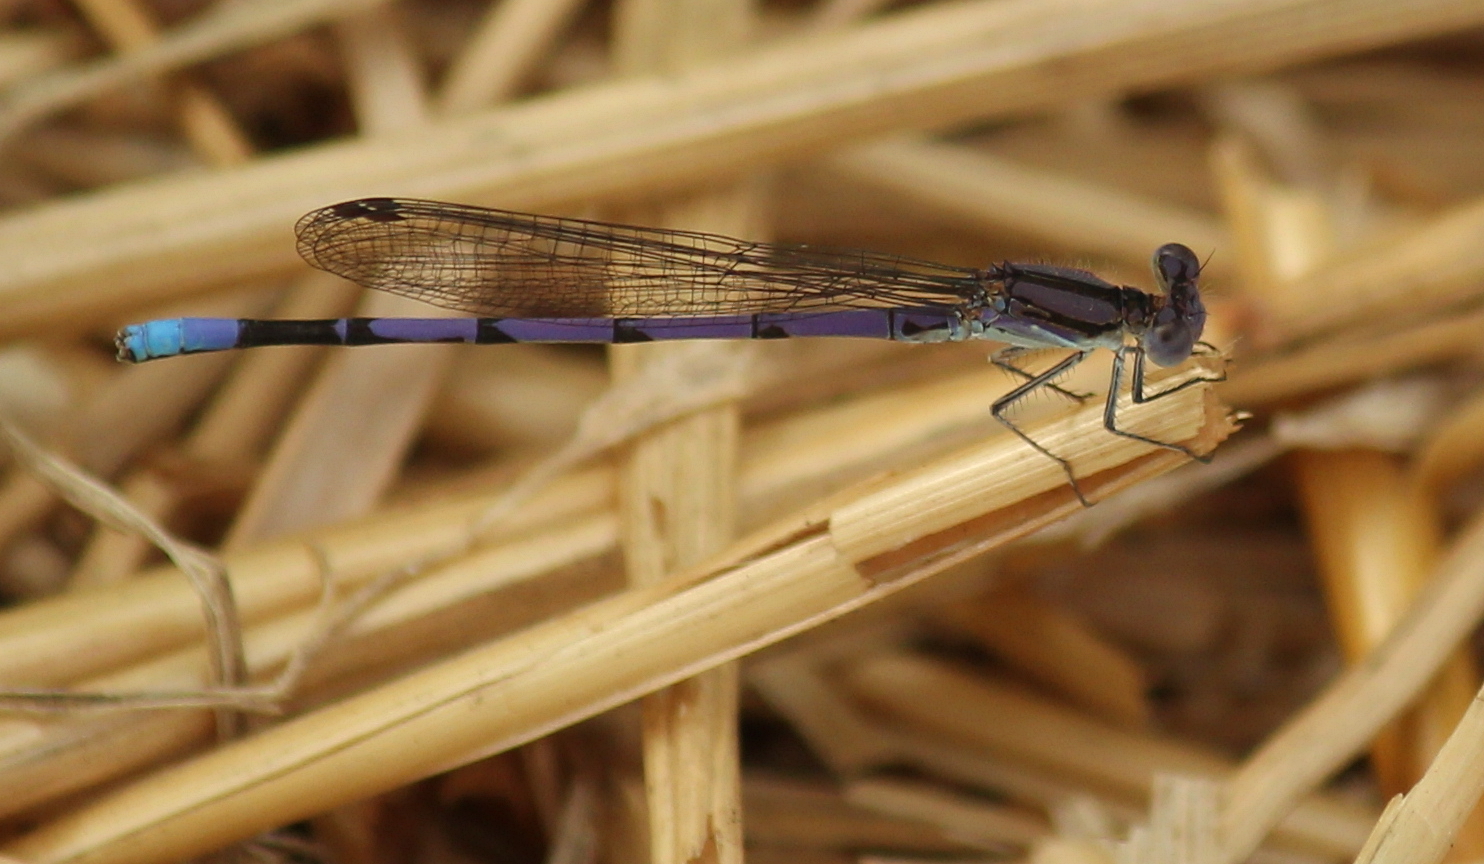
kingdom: Animalia
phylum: Arthropoda
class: Insecta
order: Odonata
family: Coenagrionidae
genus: Argia
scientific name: Argia fumipennis
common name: Variable dancer
